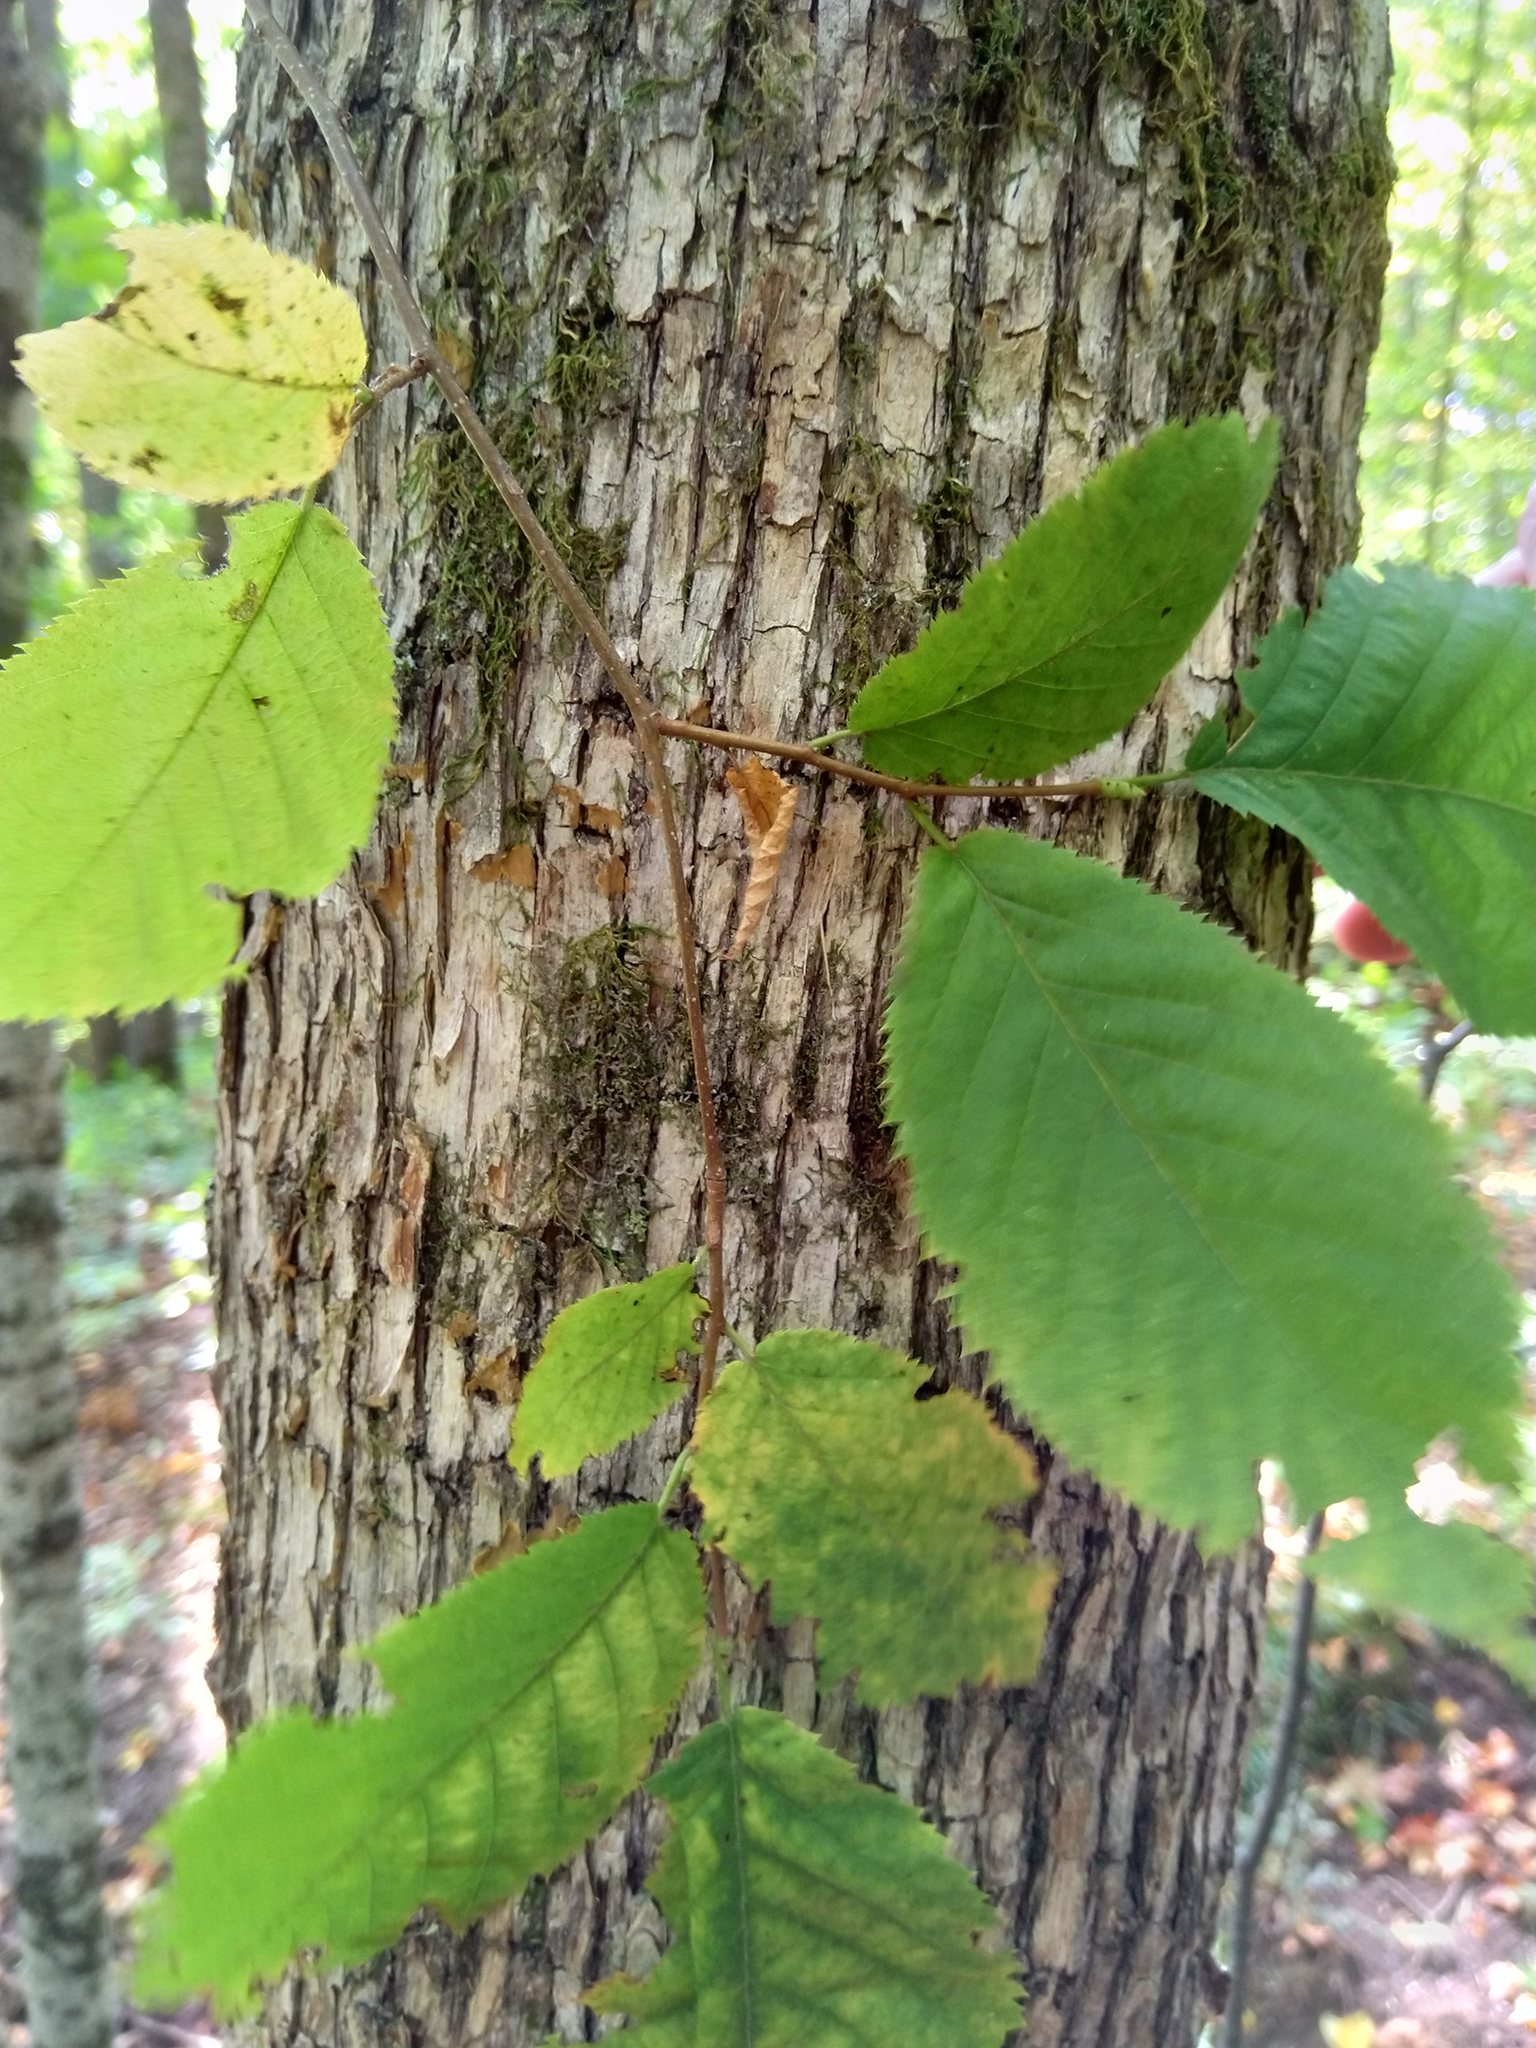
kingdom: Plantae
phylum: Tracheophyta
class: Magnoliopsida
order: Fagales
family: Betulaceae
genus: Ostrya
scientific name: Ostrya virginiana
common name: Ironwood
